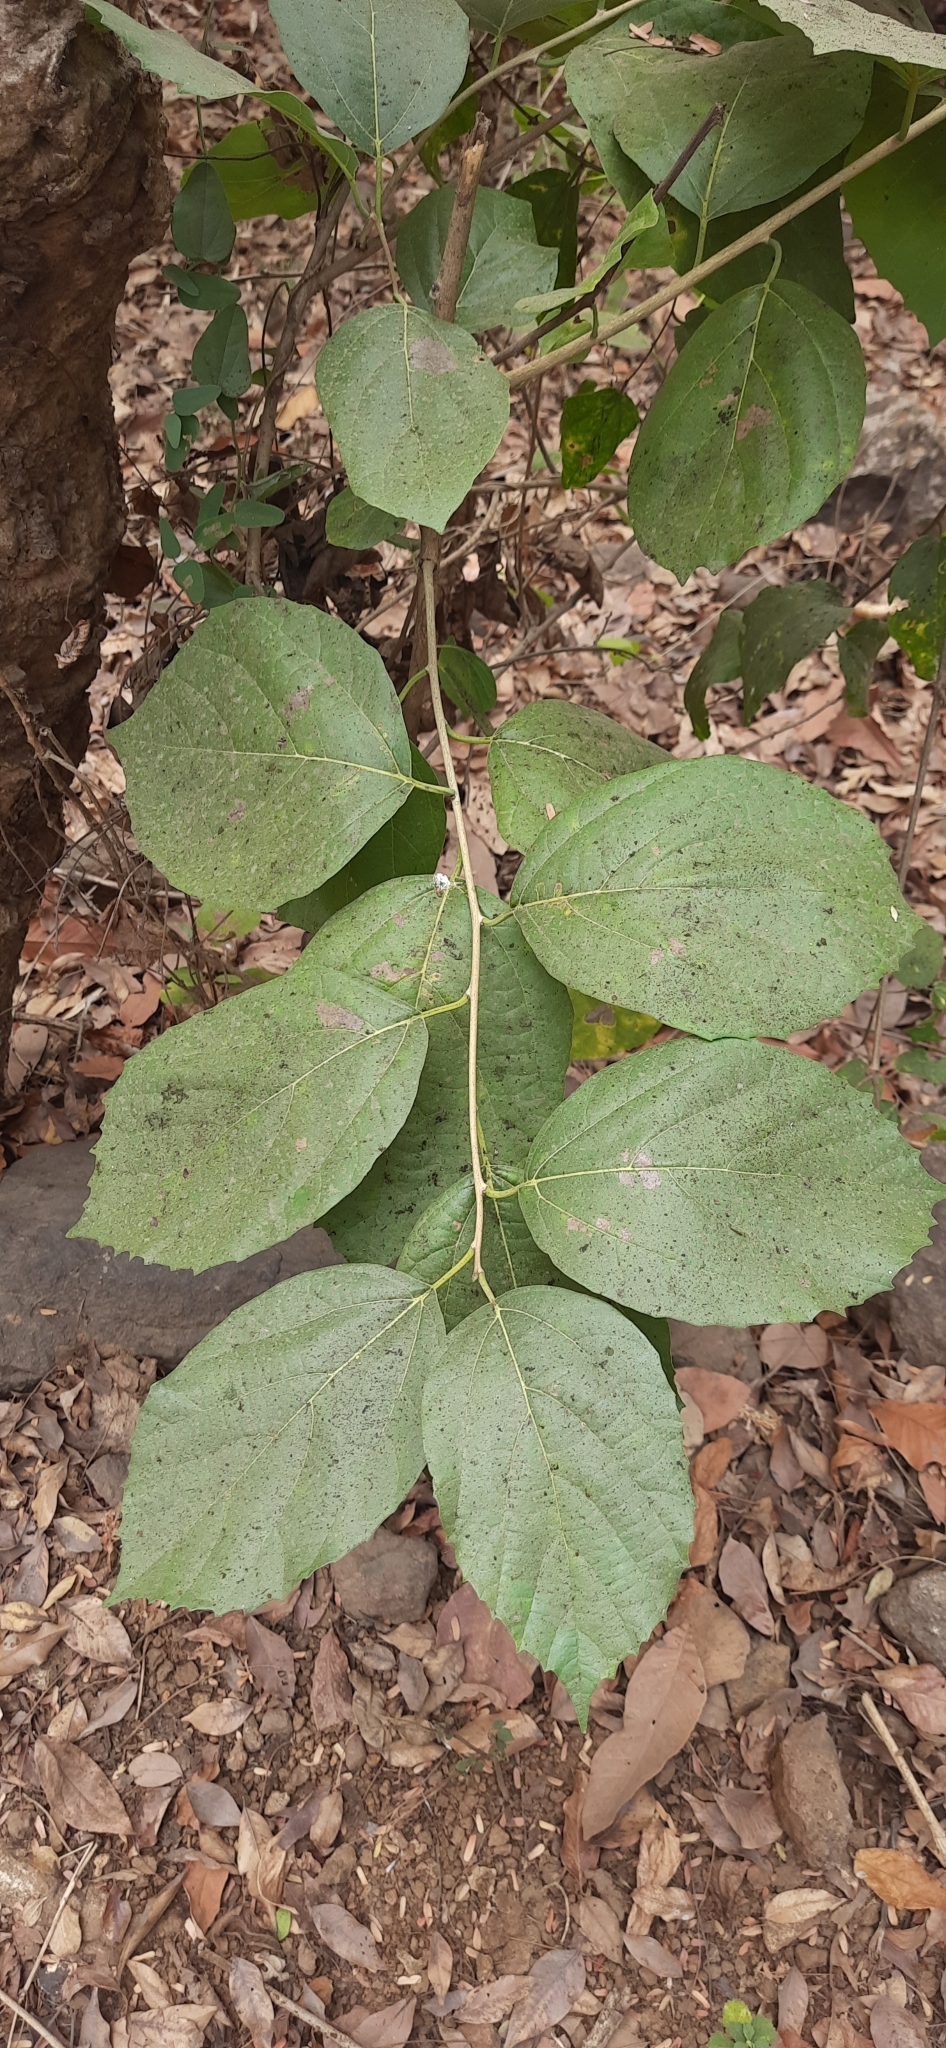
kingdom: Plantae
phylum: Tracheophyta
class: Magnoliopsida
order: Malvales
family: Malvaceae
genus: Helicteres
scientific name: Helicteres isora
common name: East indian screwtree
